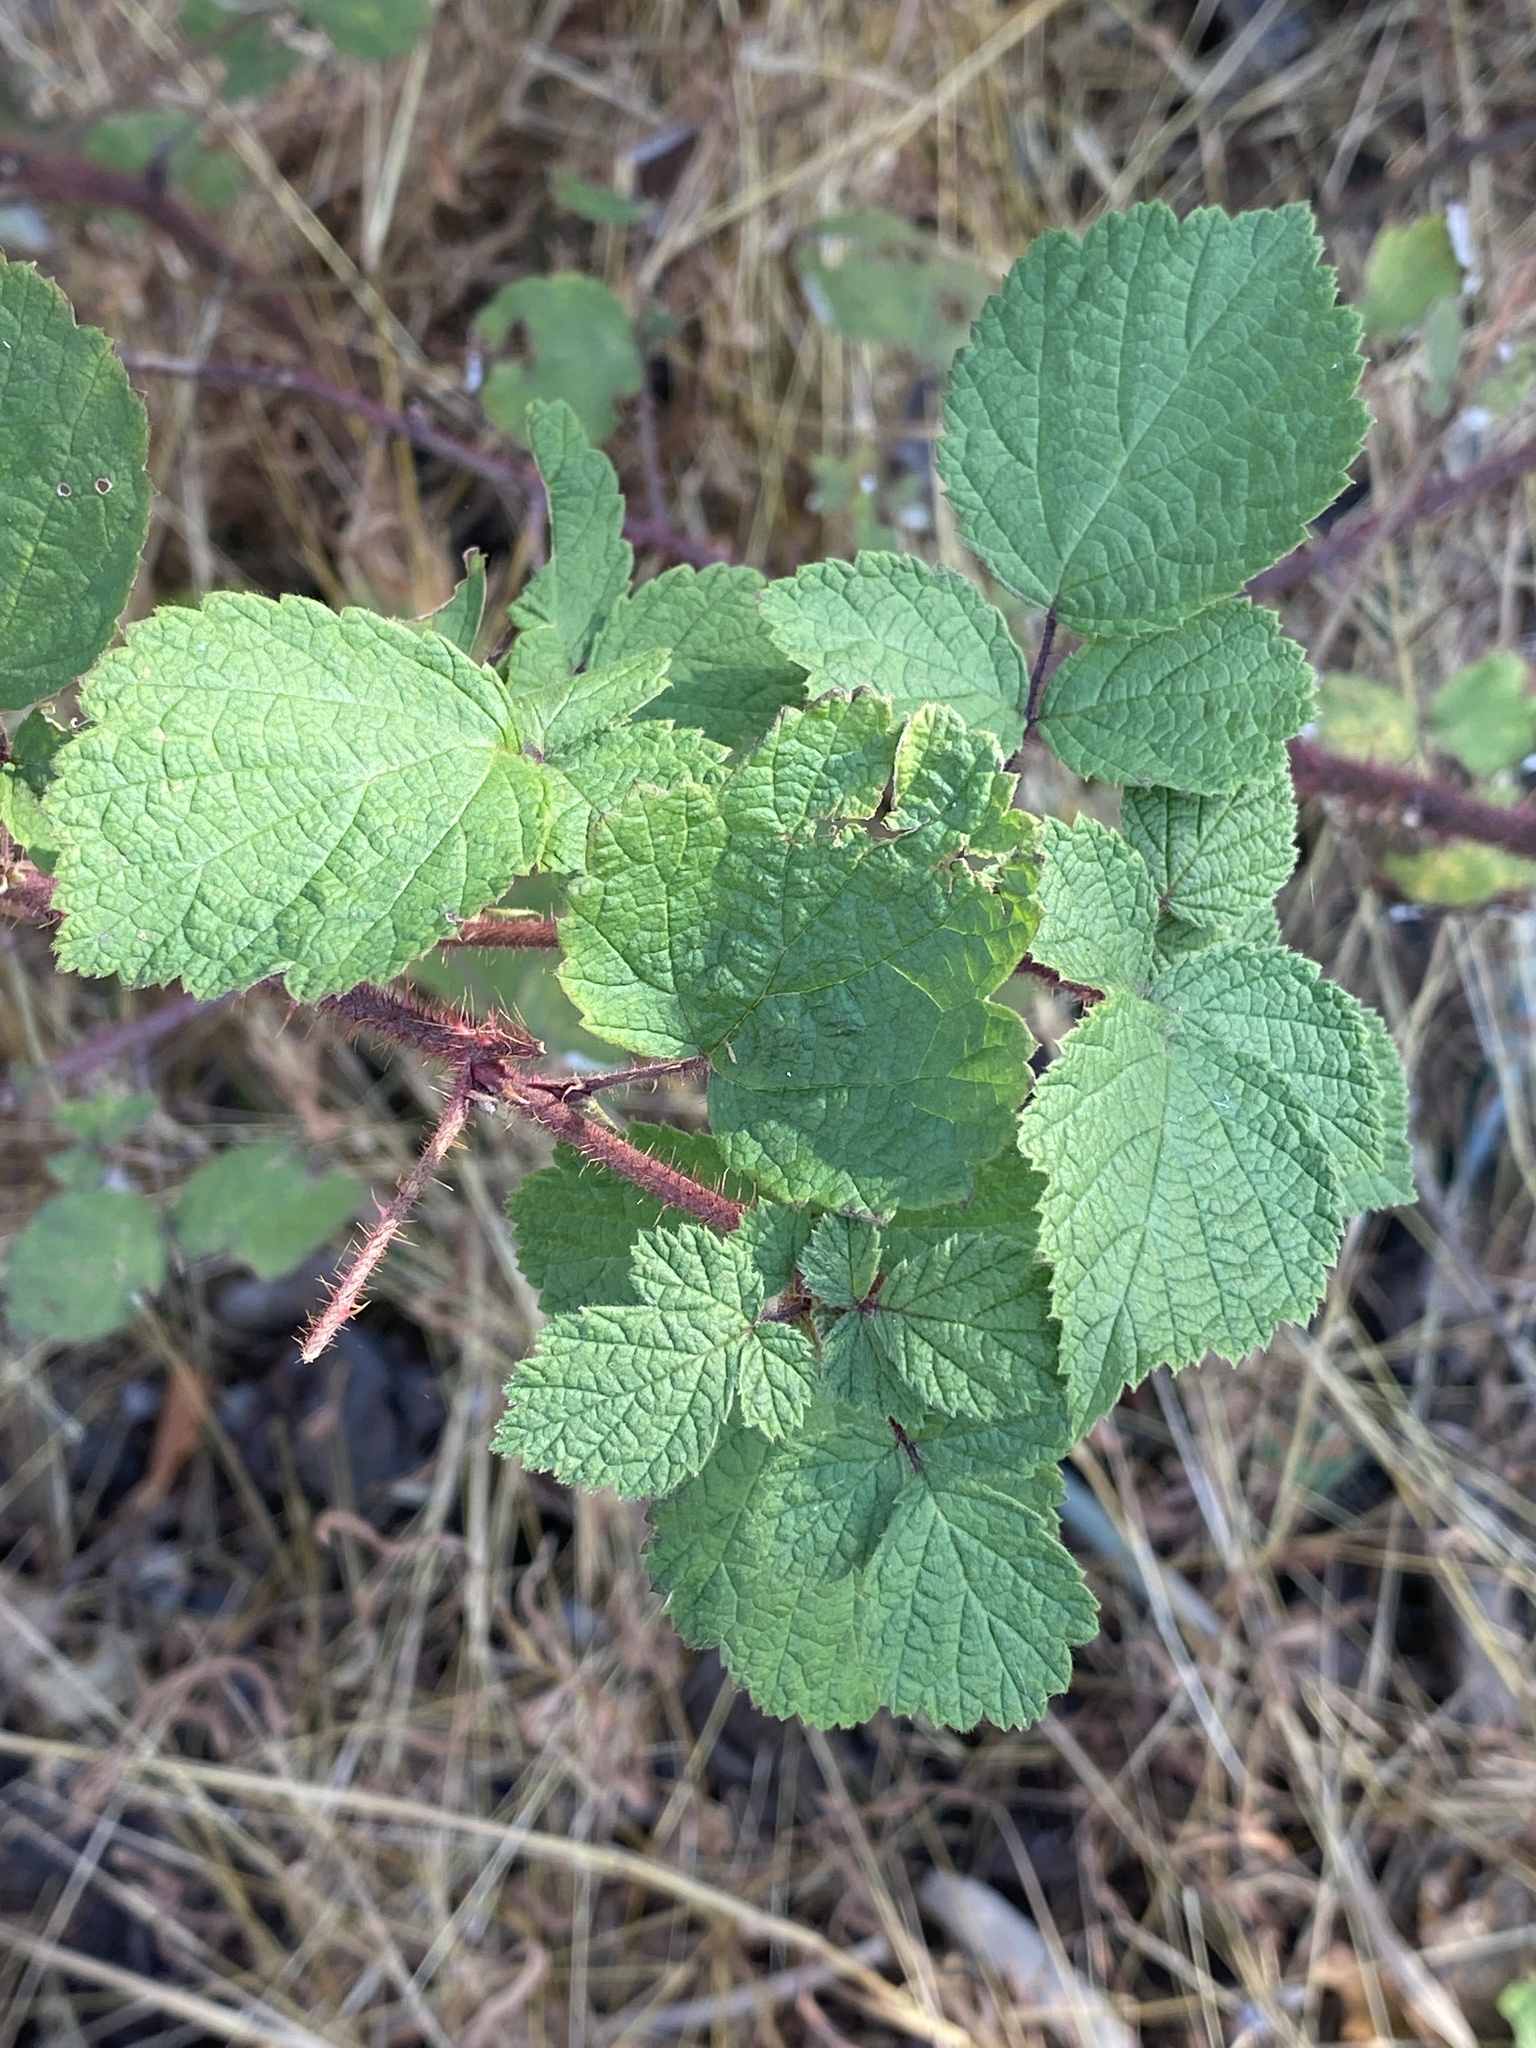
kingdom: Plantae
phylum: Tracheophyta
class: Magnoliopsida
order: Rosales
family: Rosaceae
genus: Rubus
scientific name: Rubus phoenicolasius
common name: Japanese wineberry
